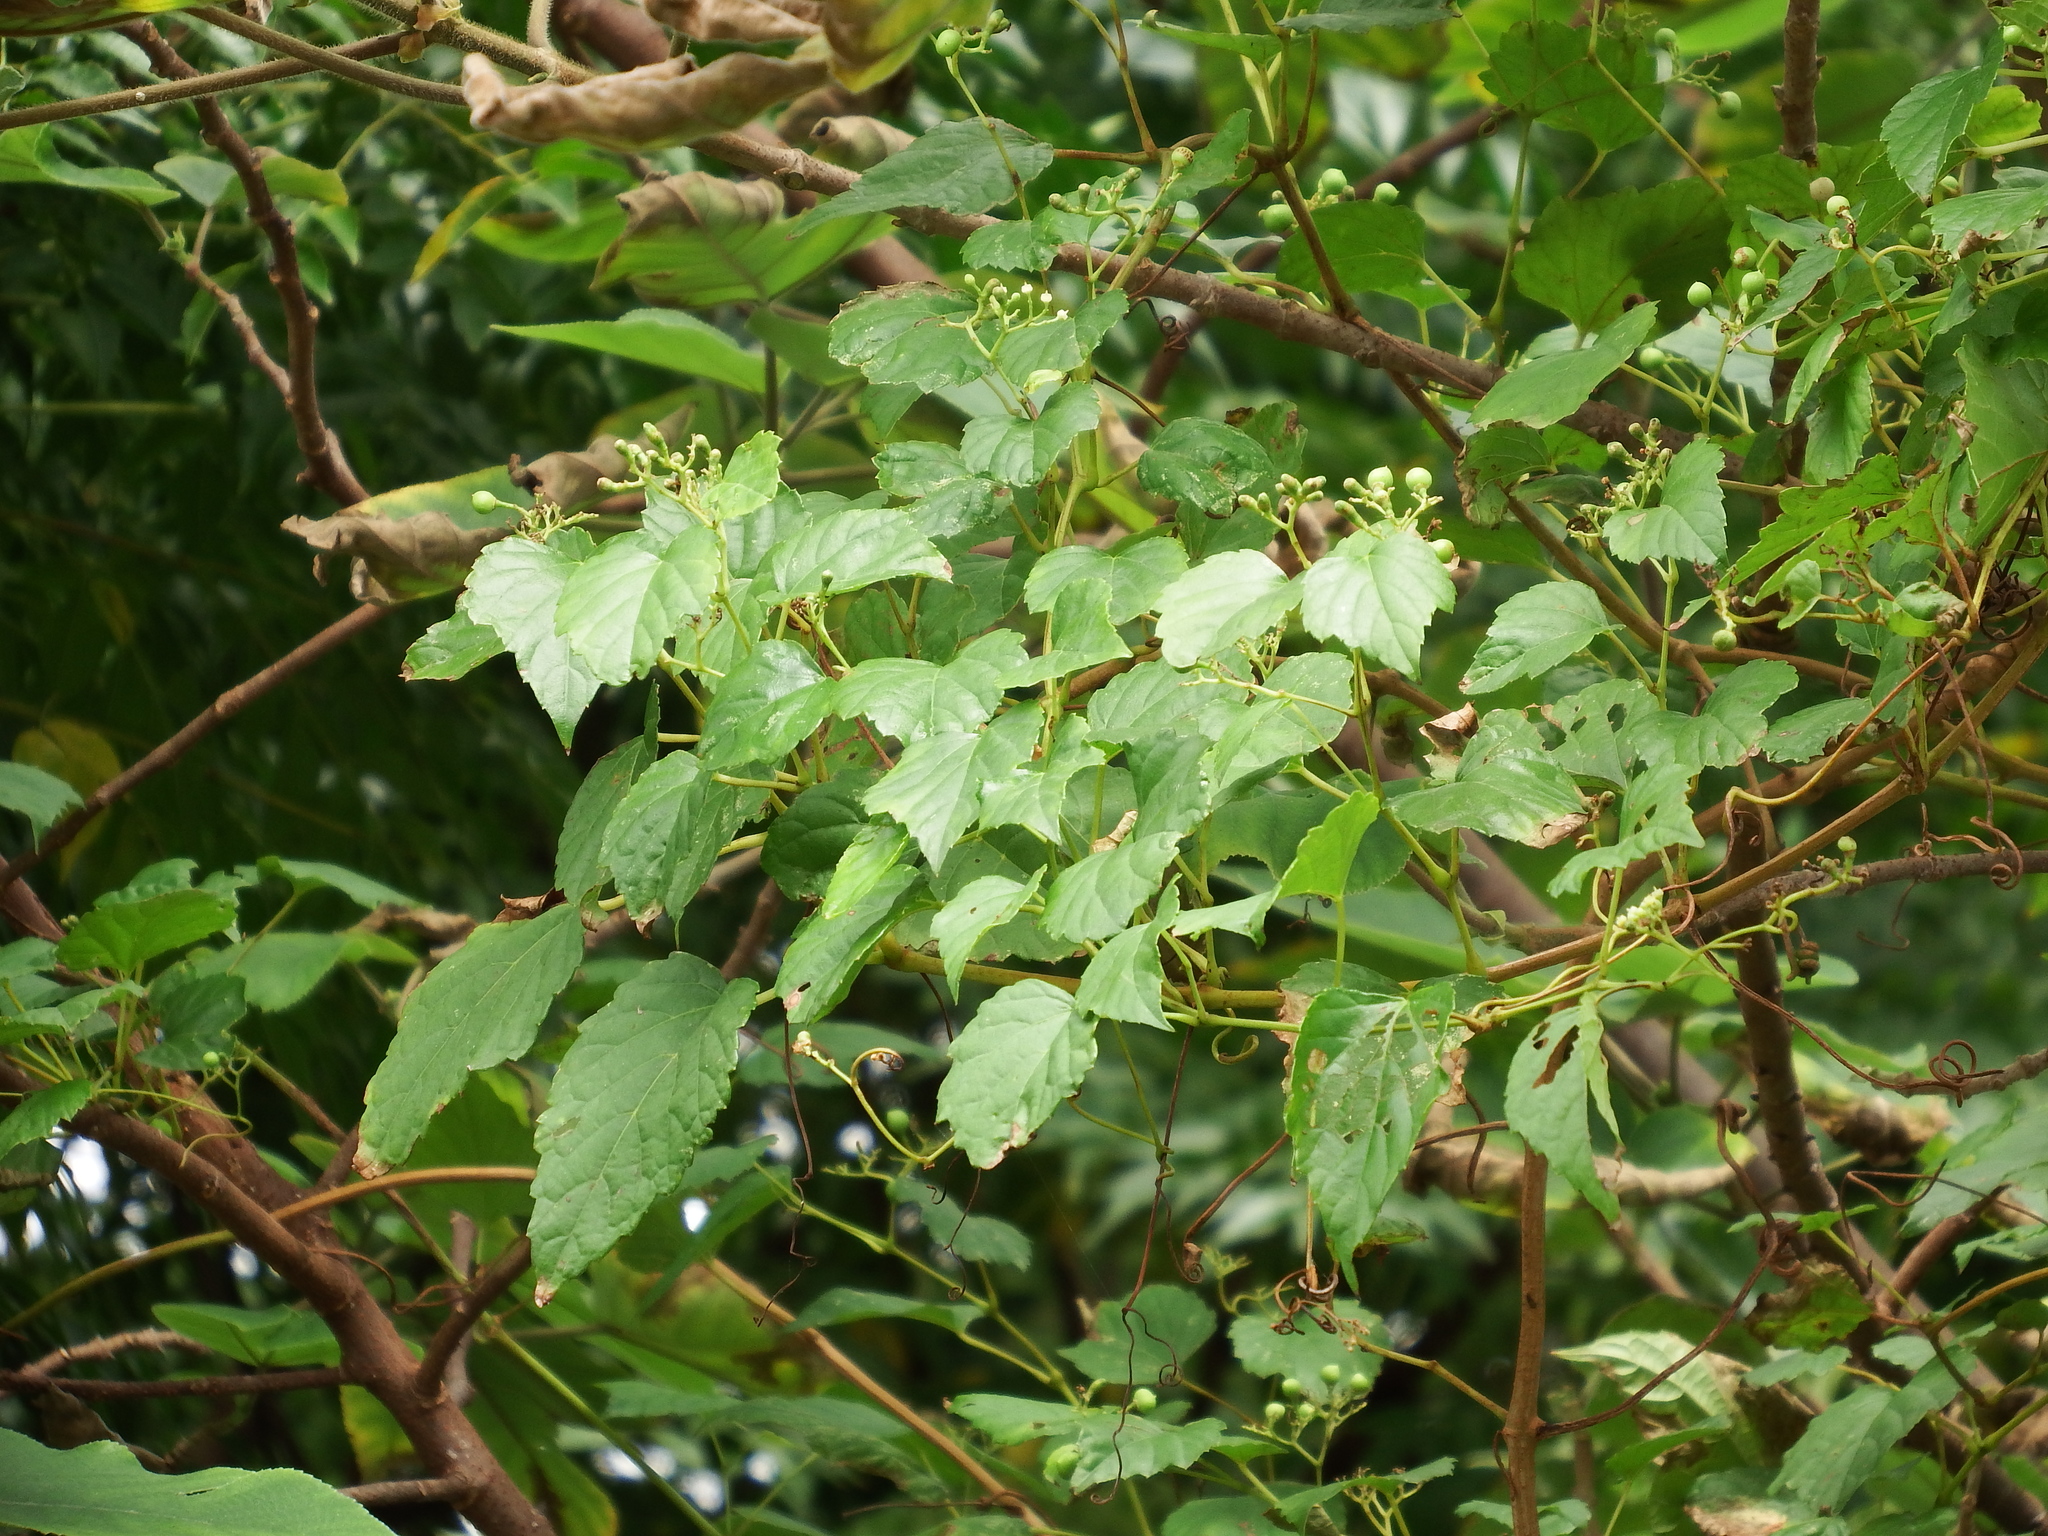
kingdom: Plantae
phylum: Tracheophyta
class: Magnoliopsida
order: Vitales
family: Vitaceae
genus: Ampelopsis
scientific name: Ampelopsis glandulosa
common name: Amur peppervine
